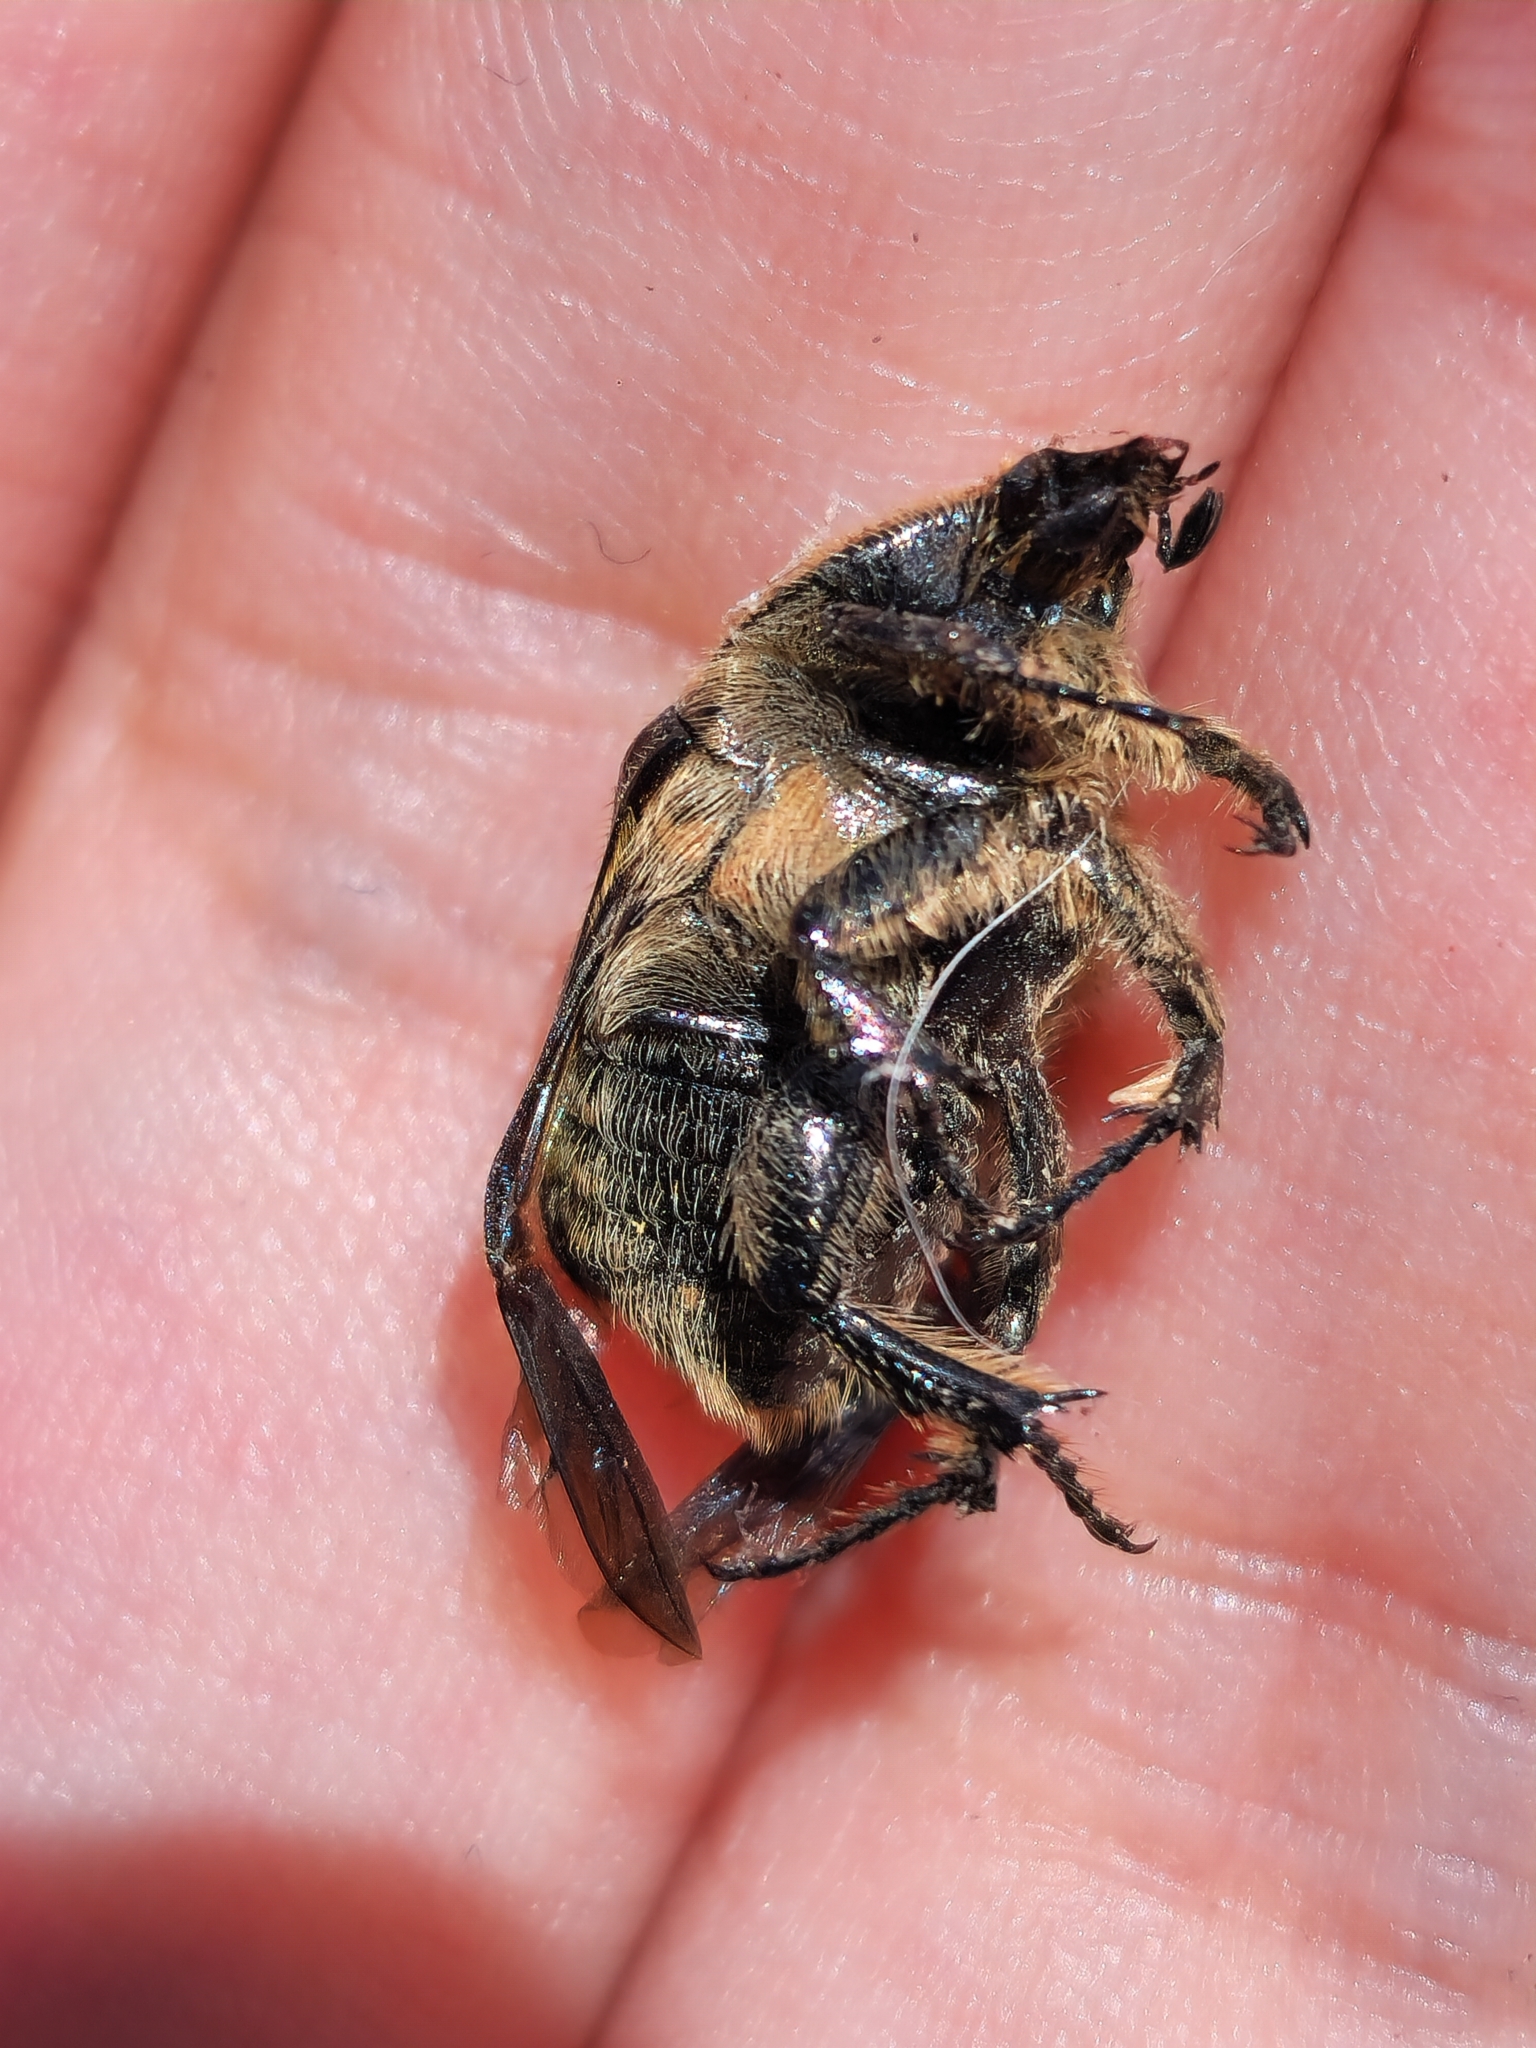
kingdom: Animalia
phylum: Arthropoda
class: Insecta
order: Coleoptera
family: Scarabaeidae
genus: Euphoria
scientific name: Euphoria lurida
